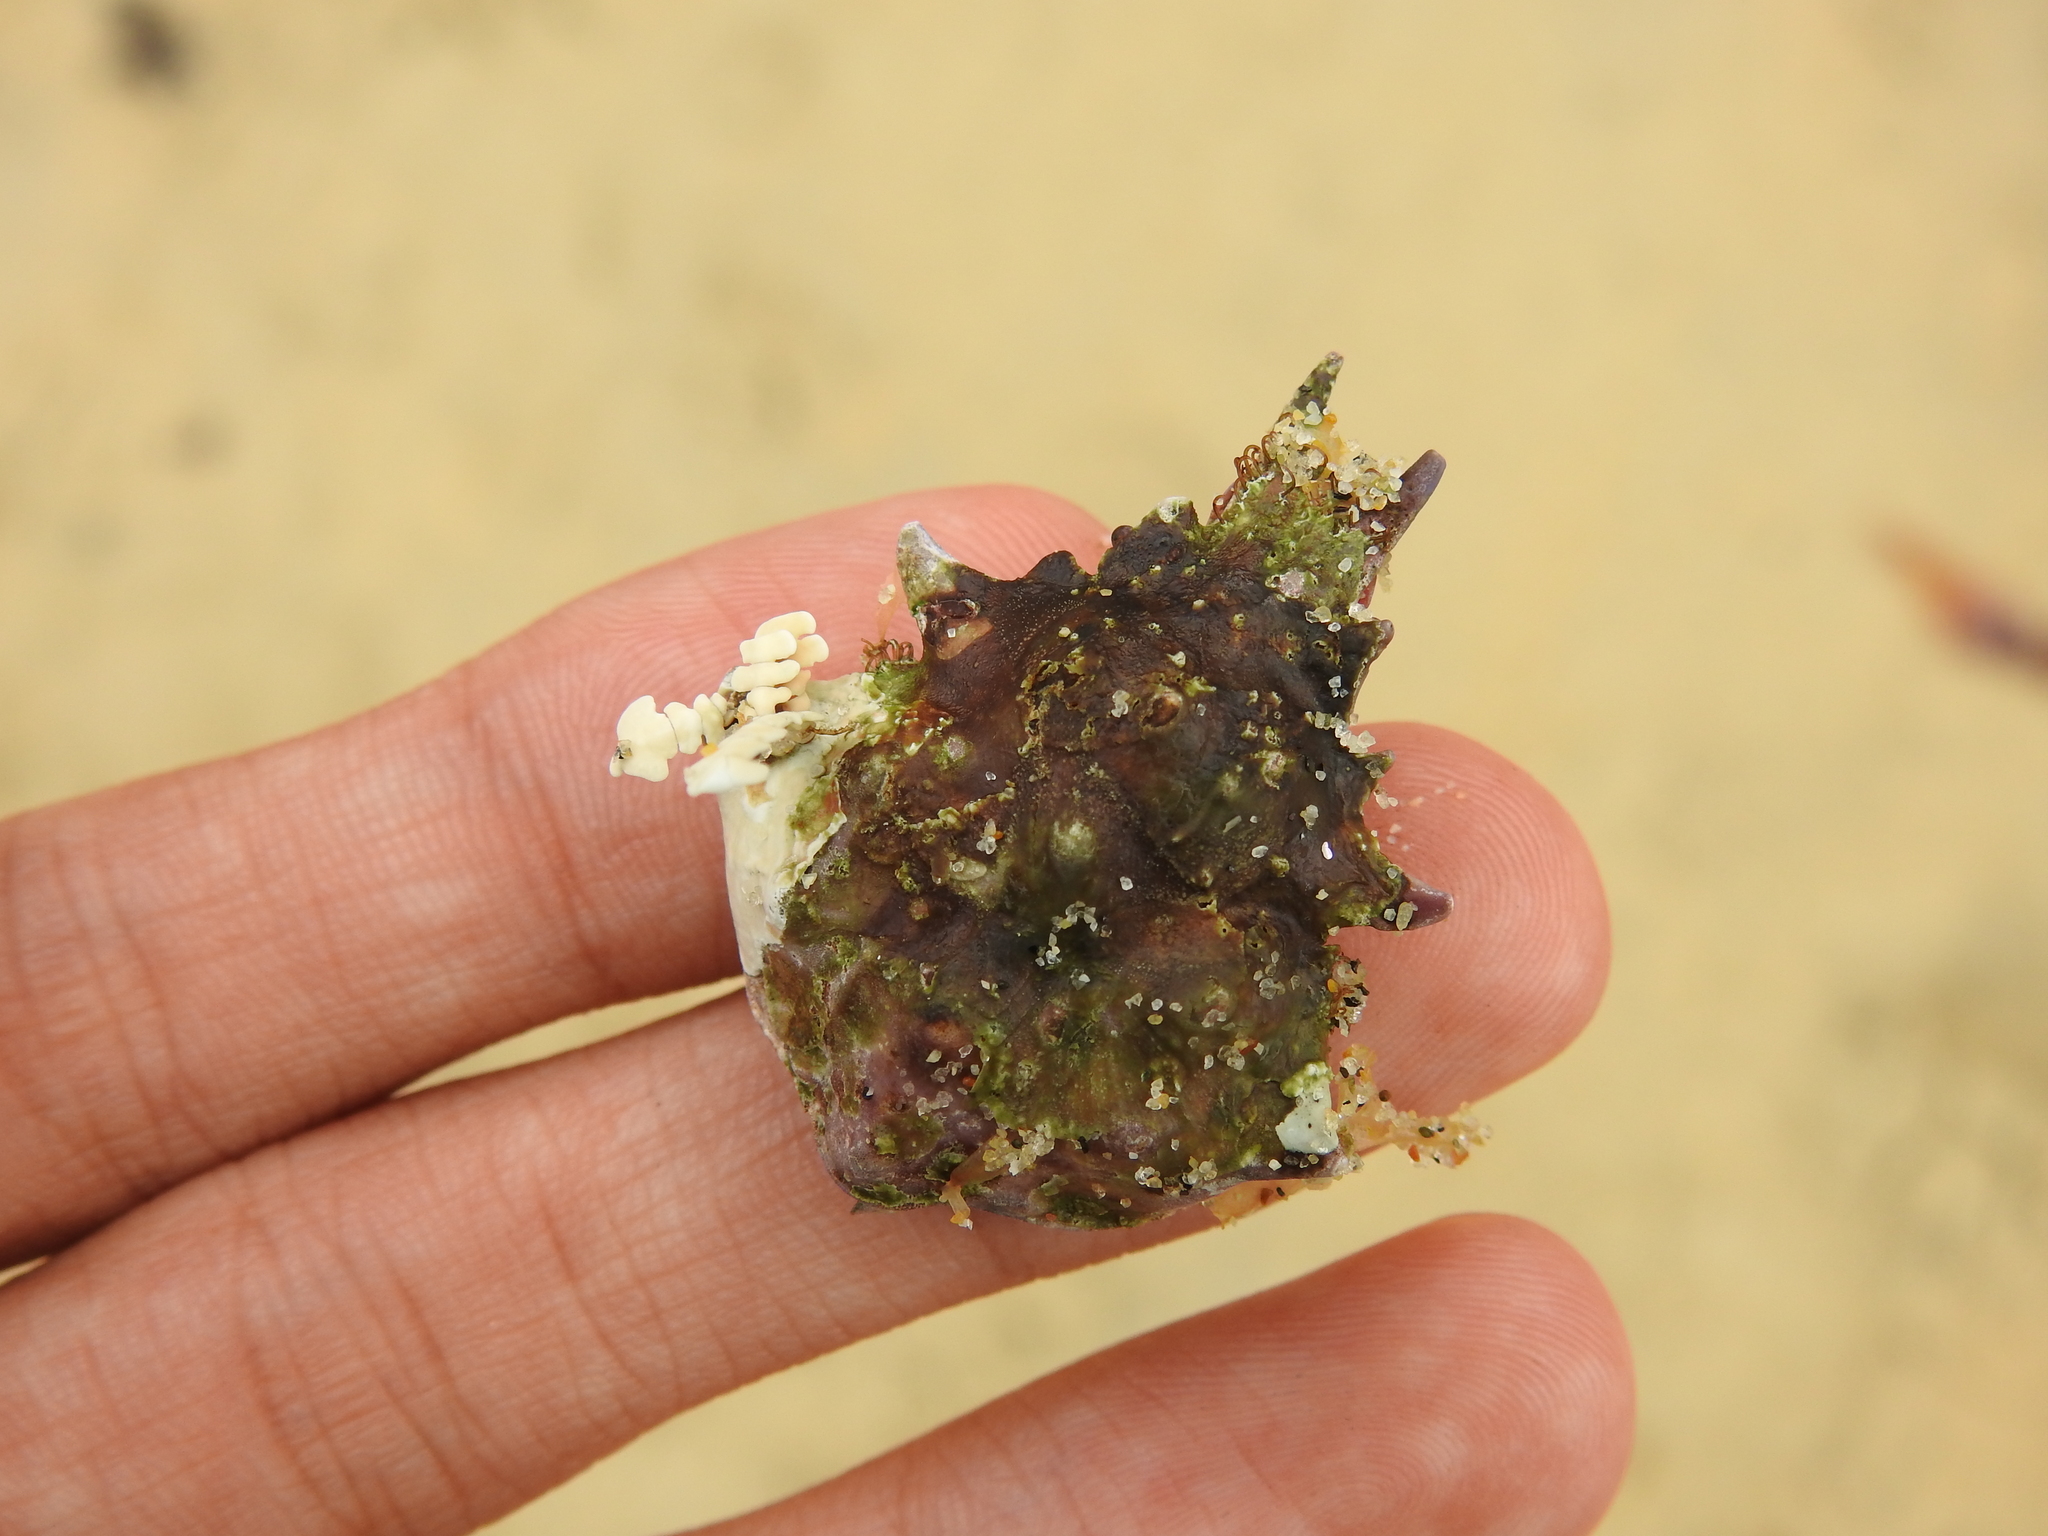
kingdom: Animalia
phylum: Arthropoda
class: Malacostraca
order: Decapoda
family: Epialtidae
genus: Pugettia
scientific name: Pugettia richii
